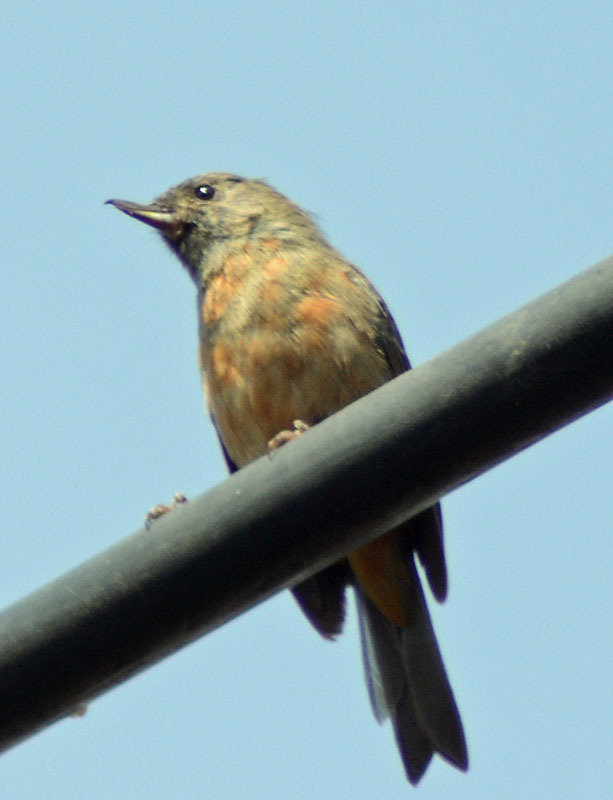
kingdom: Animalia
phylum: Chordata
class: Aves
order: Passeriformes
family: Thraupidae
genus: Diglossa
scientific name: Diglossa baritula
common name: Cinnamon-bellied flowerpiercer
